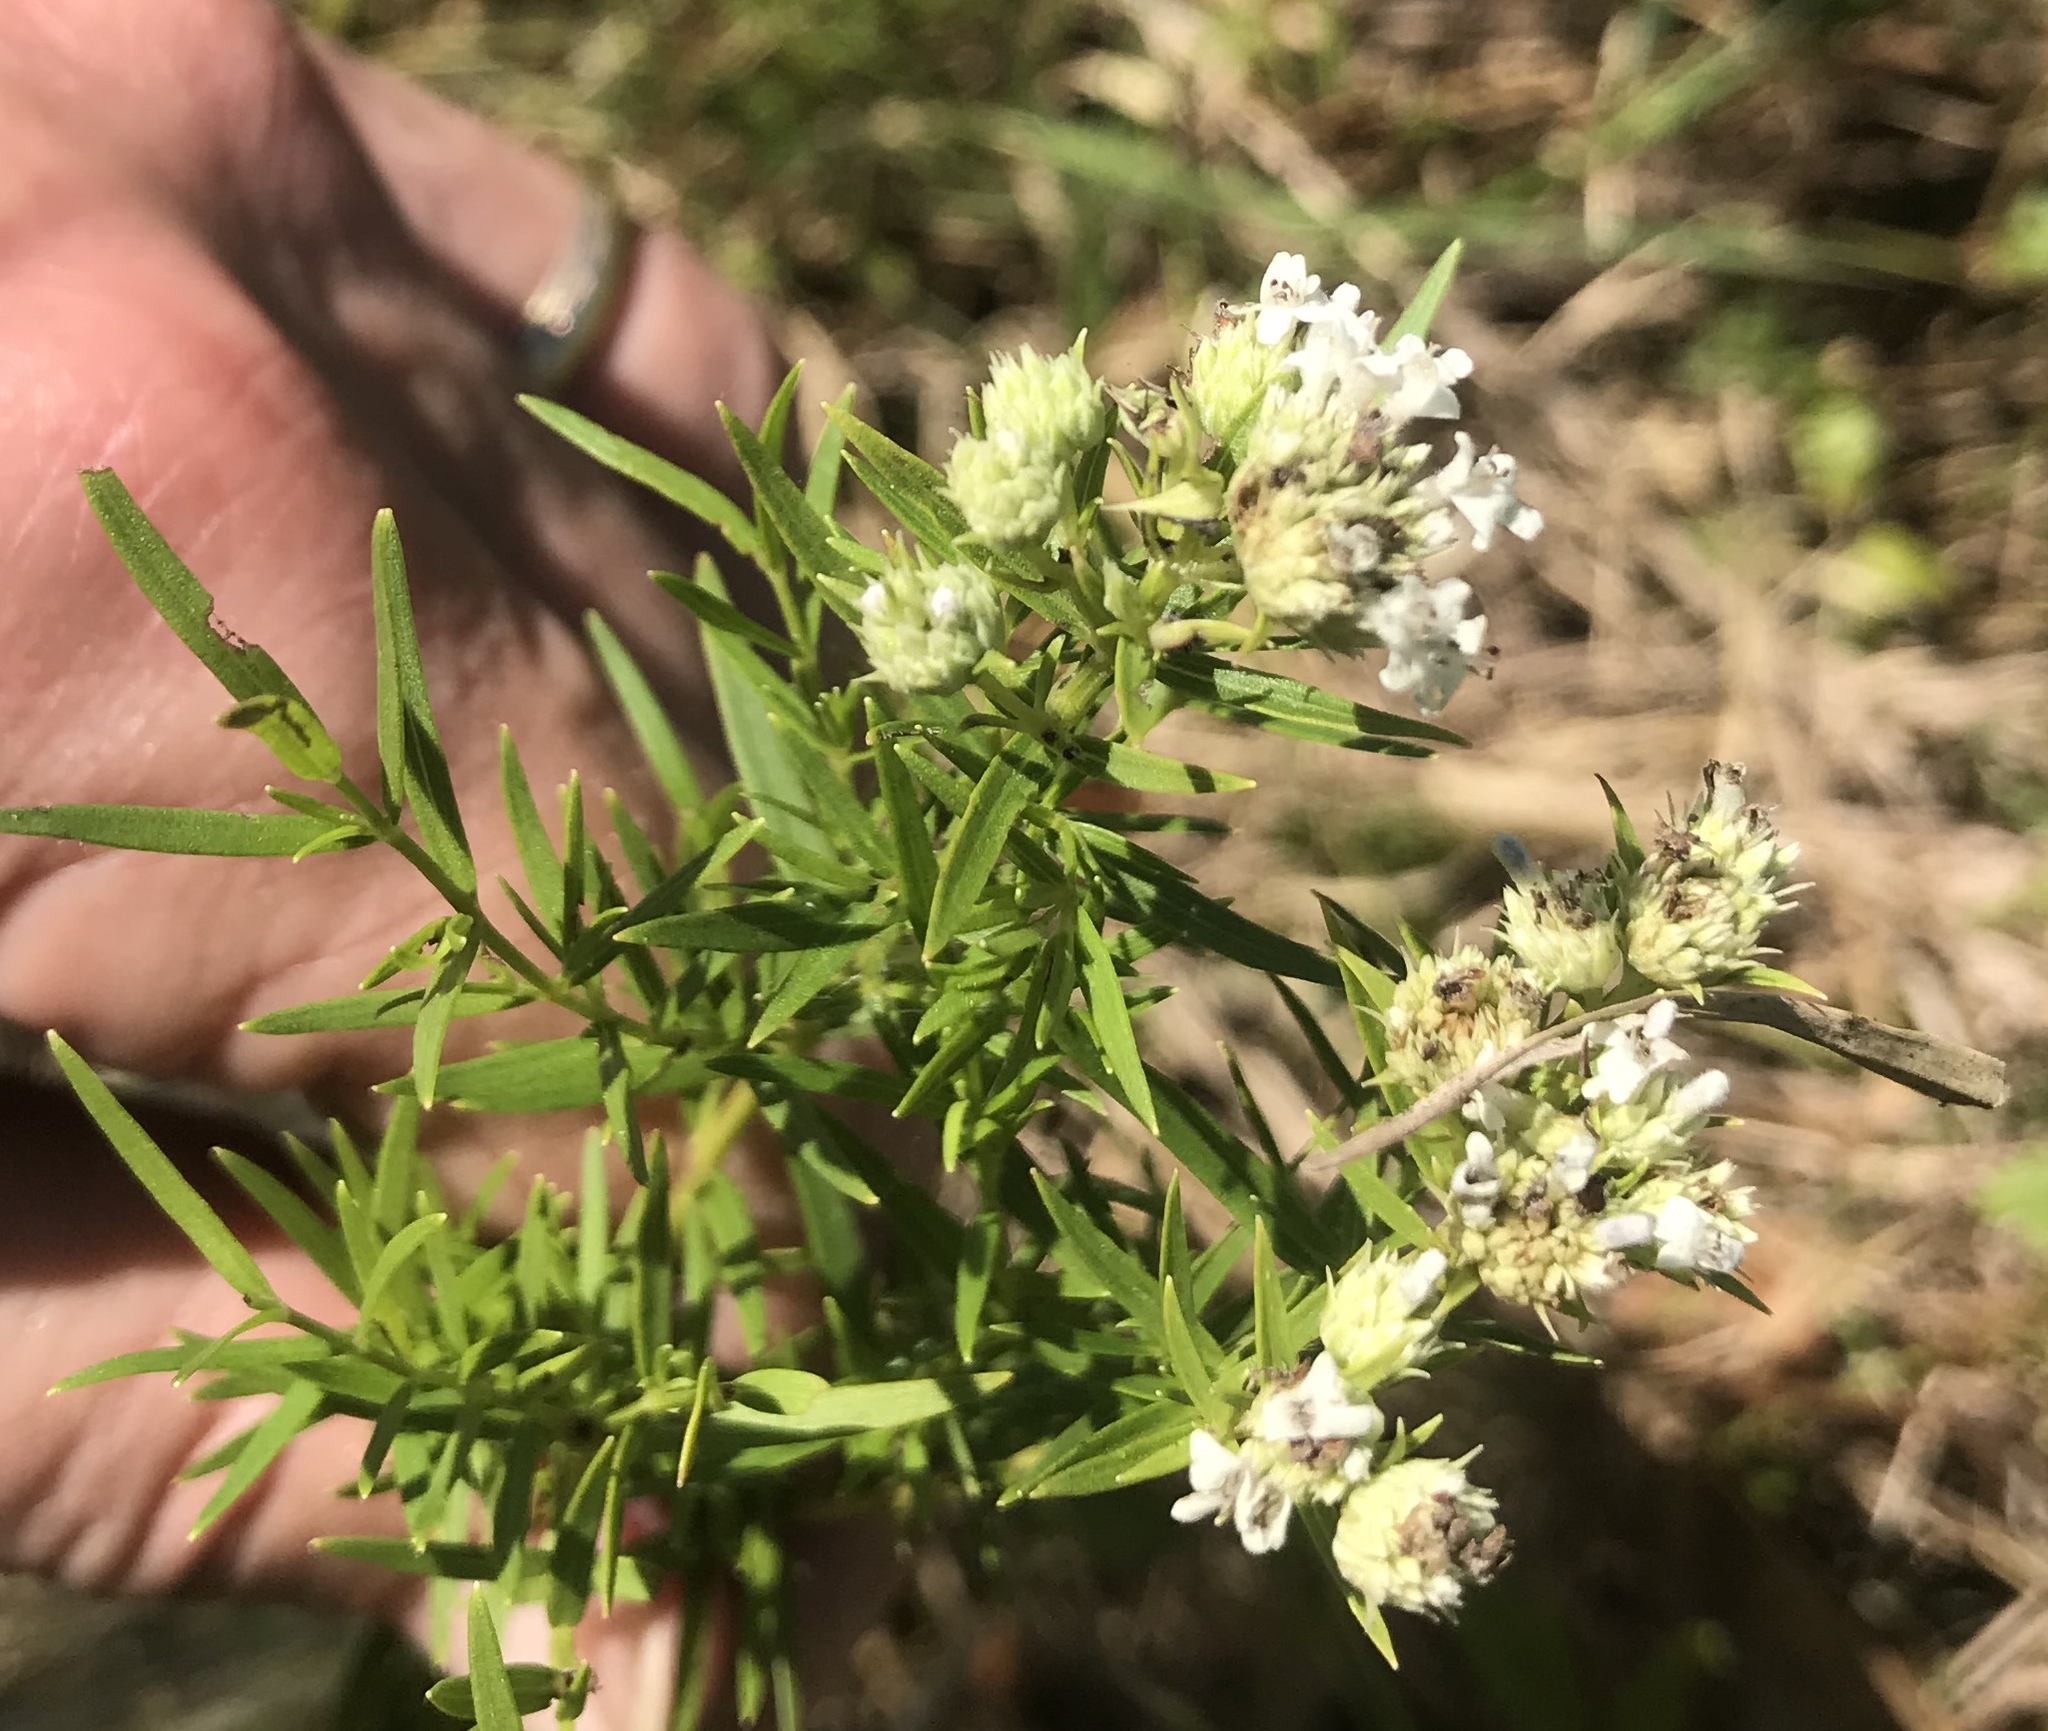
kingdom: Plantae
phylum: Tracheophyta
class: Magnoliopsida
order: Lamiales
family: Lamiaceae
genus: Pycnanthemum
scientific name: Pycnanthemum tenuifolium
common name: Narrow-leaf mountain-mint
